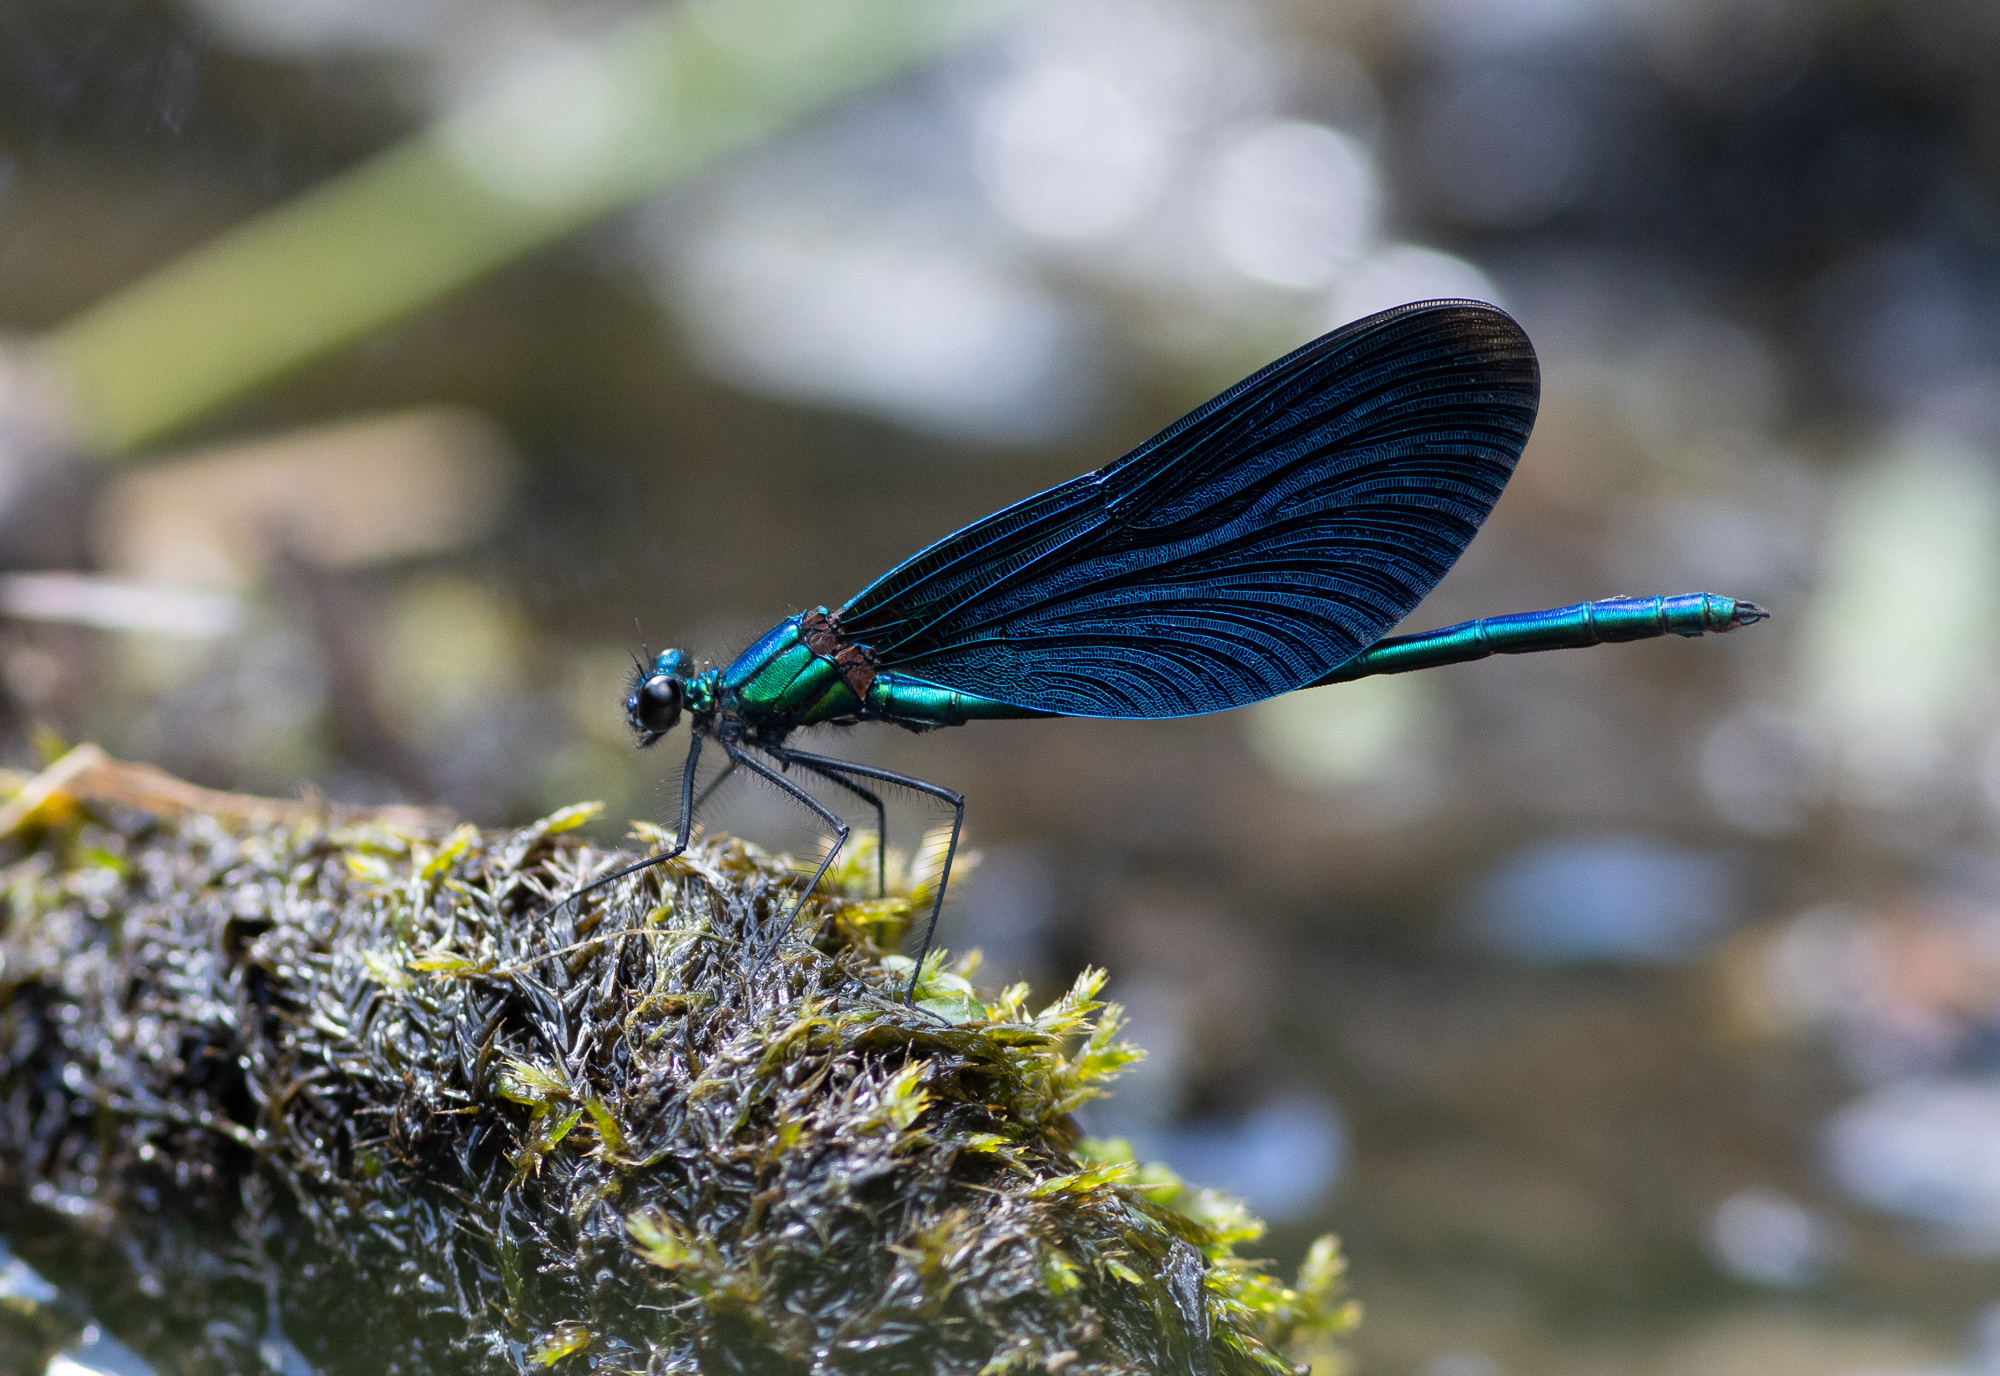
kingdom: Animalia
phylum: Arthropoda
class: Insecta
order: Odonata
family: Calopterygidae
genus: Calopteryx
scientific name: Calopteryx virgo
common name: Beautiful demoiselle
